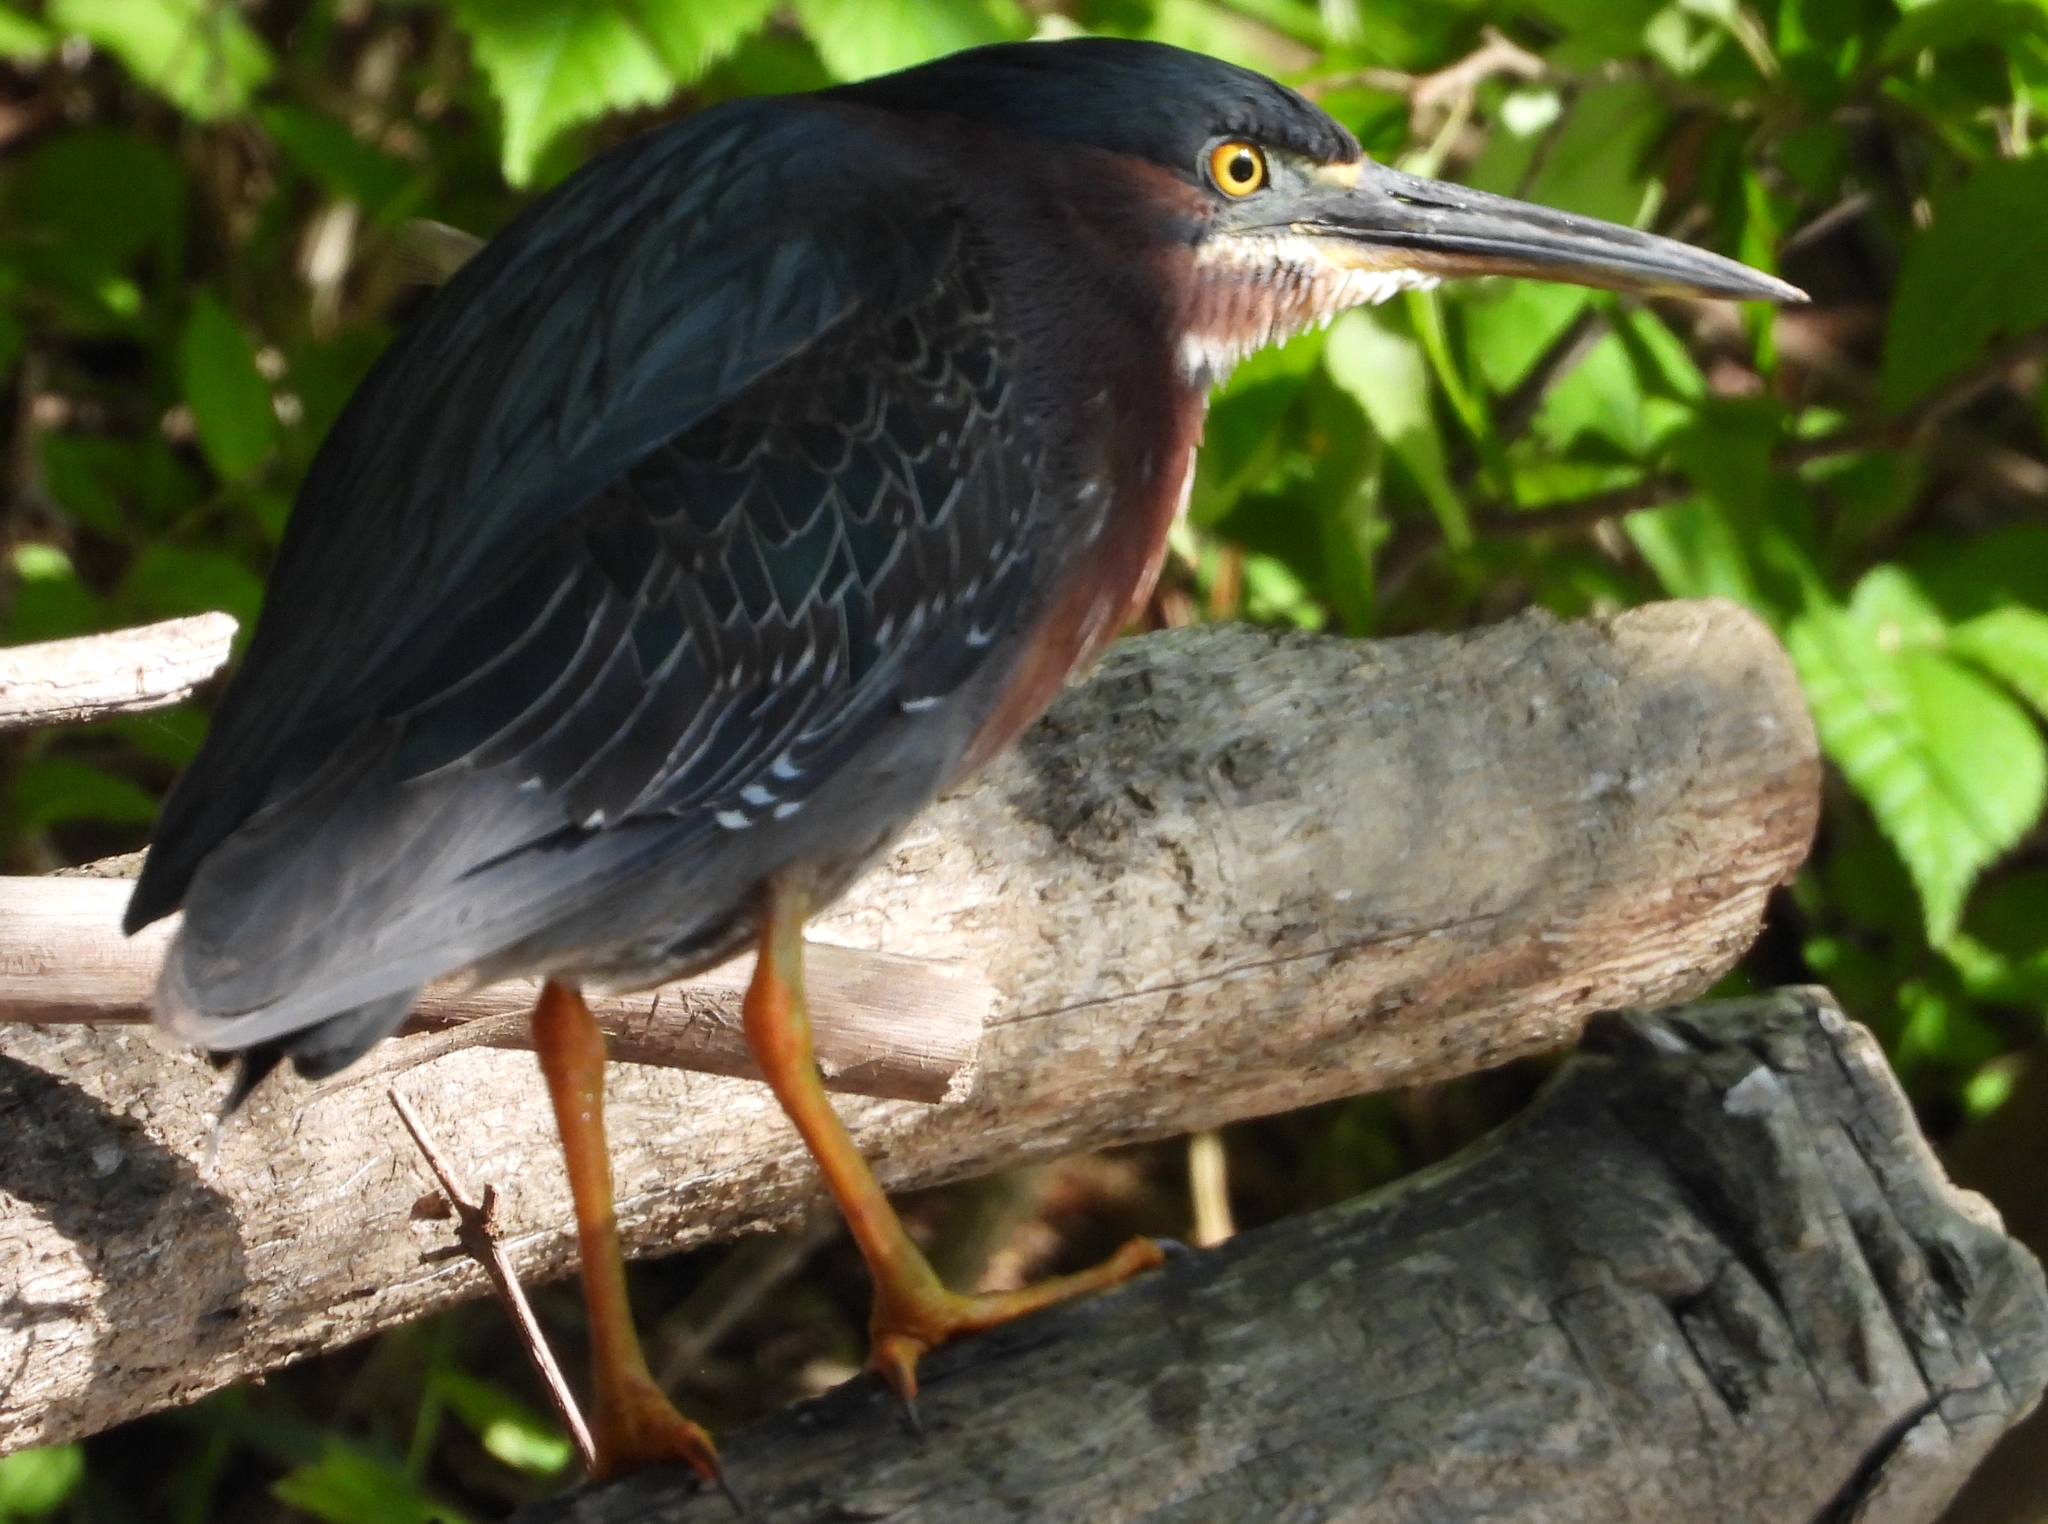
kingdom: Animalia
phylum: Chordata
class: Aves
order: Pelecaniformes
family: Ardeidae
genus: Butorides
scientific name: Butorides virescens
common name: Green heron
